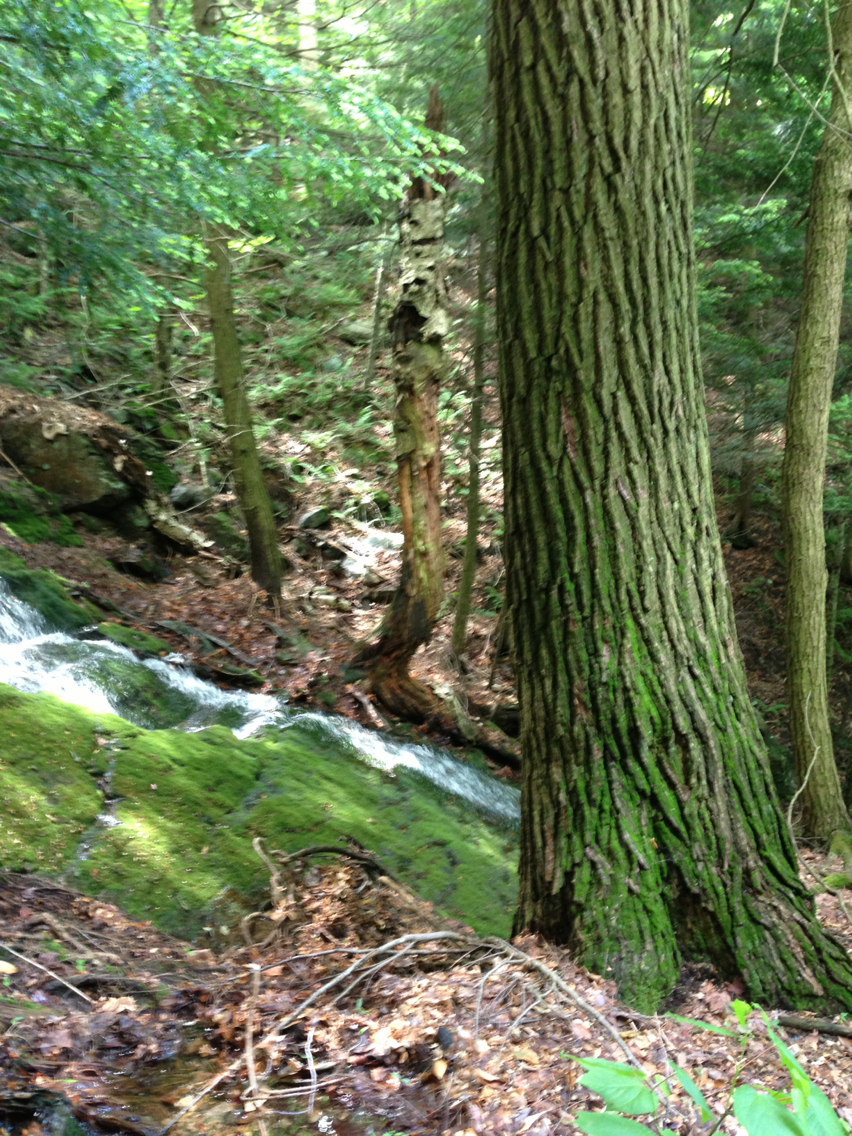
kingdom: Plantae
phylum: Tracheophyta
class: Magnoliopsida
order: Sapindales
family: Sapindaceae
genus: Acer
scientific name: Acer pensylvanicum
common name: Moosewood
